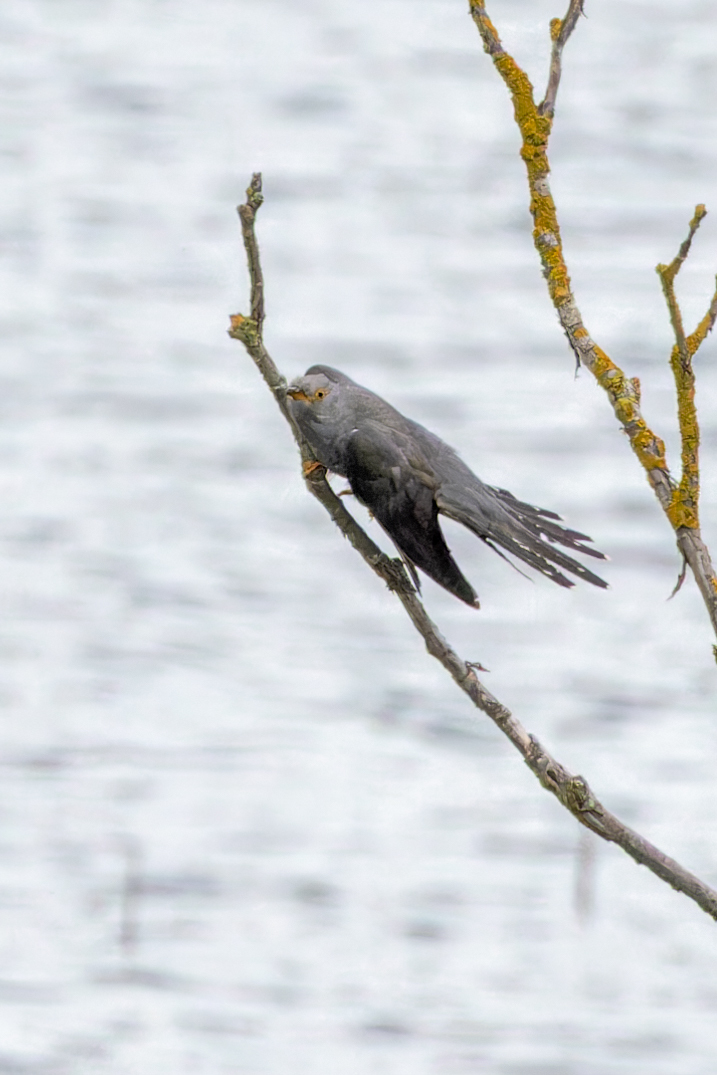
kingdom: Animalia
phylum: Chordata
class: Aves
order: Cuculiformes
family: Cuculidae
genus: Cuculus
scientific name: Cuculus canorus
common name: Common cuckoo
